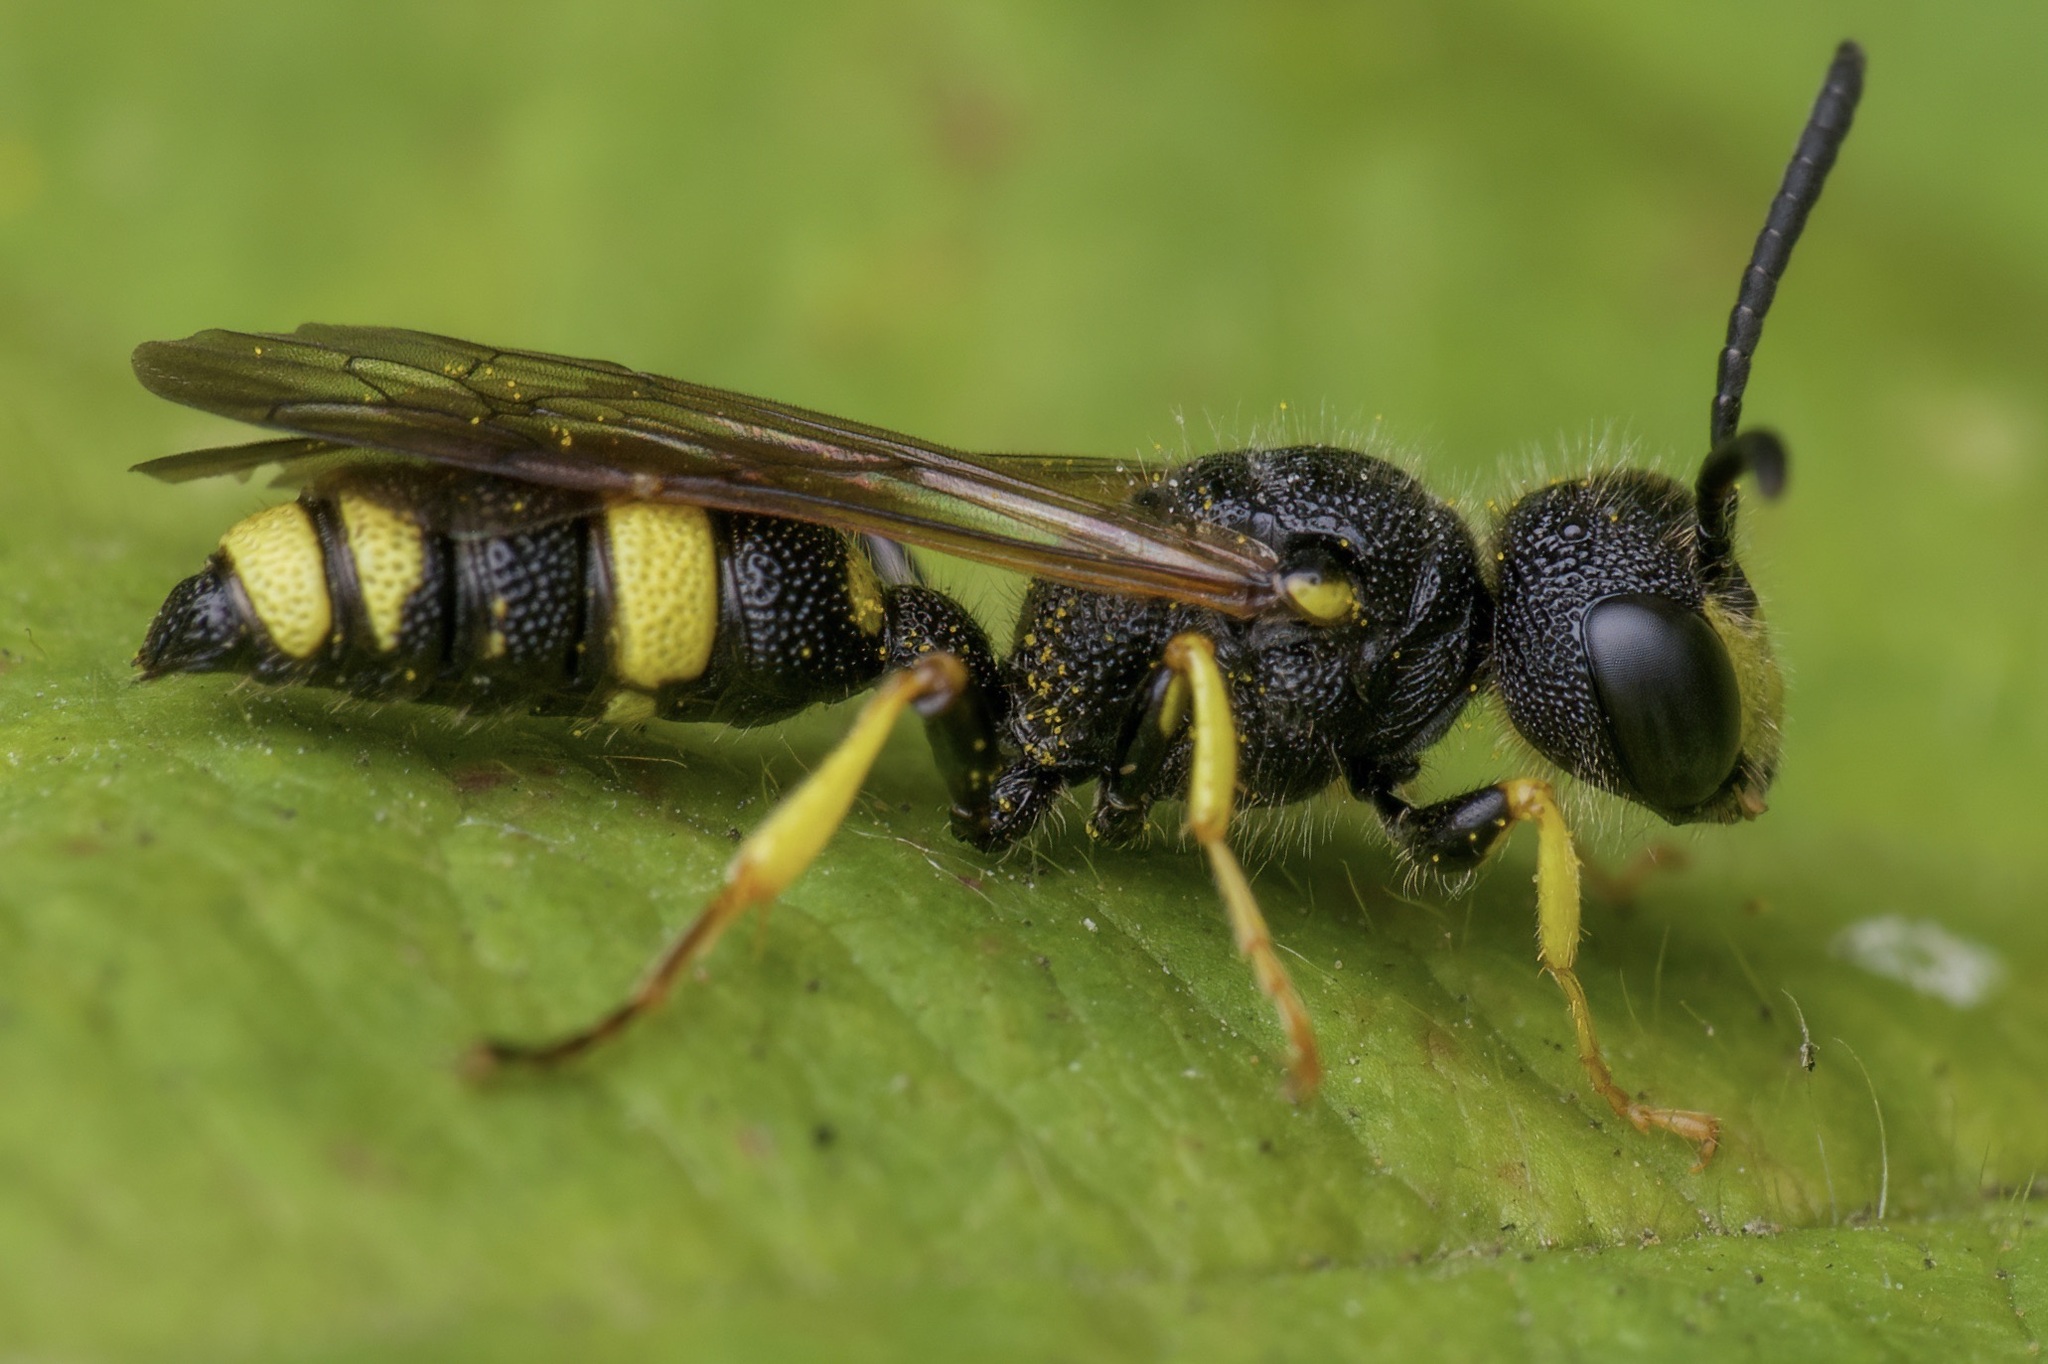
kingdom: Animalia
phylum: Arthropoda
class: Insecta
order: Hymenoptera
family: Crabronidae
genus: Cerceris
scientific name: Cerceris rybyensis
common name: Ornate tailed digger wasp
